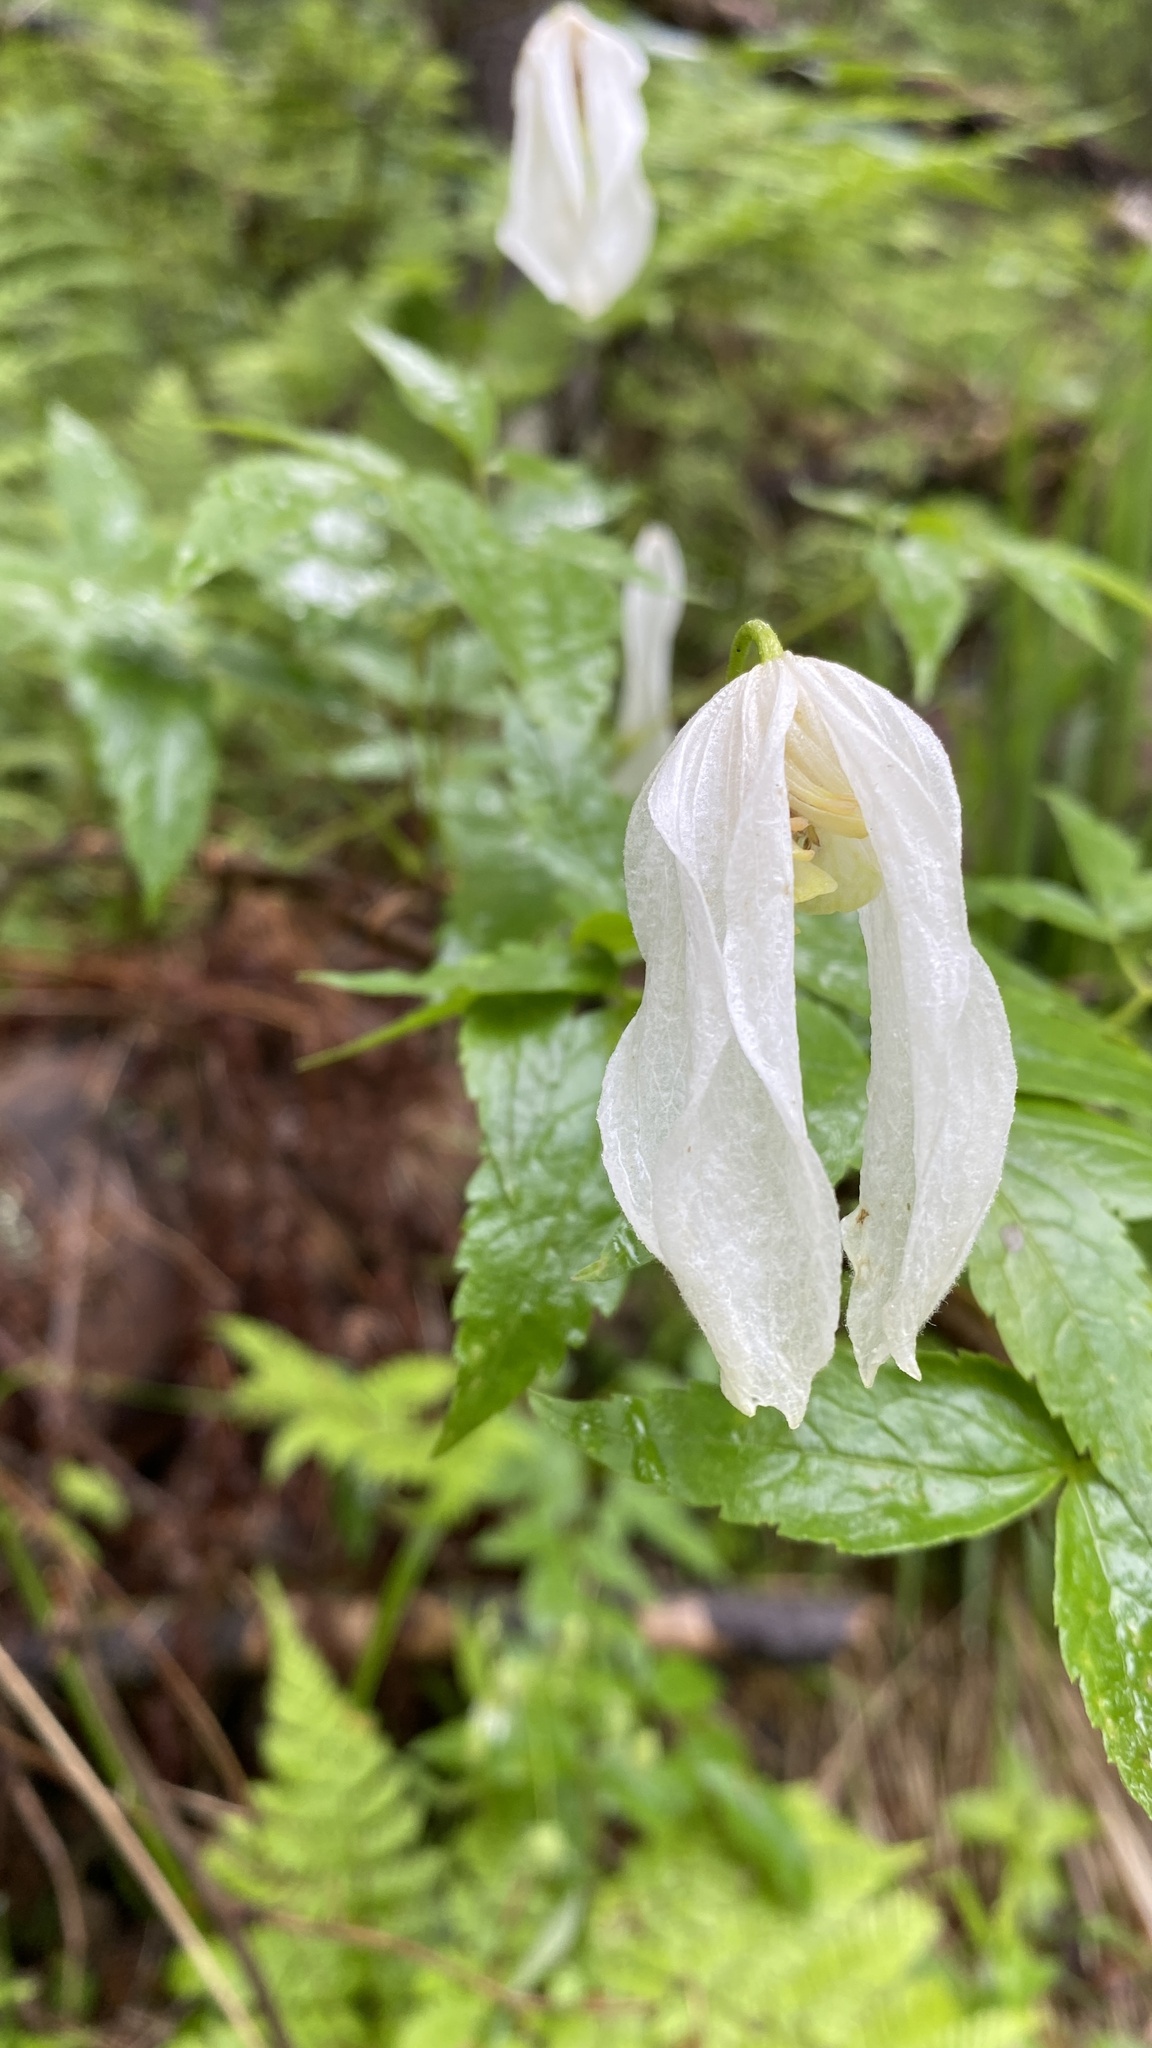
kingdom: Plantae
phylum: Tracheophyta
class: Magnoliopsida
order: Ranunculales
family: Ranunculaceae
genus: Clematis
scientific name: Clematis sibirica
